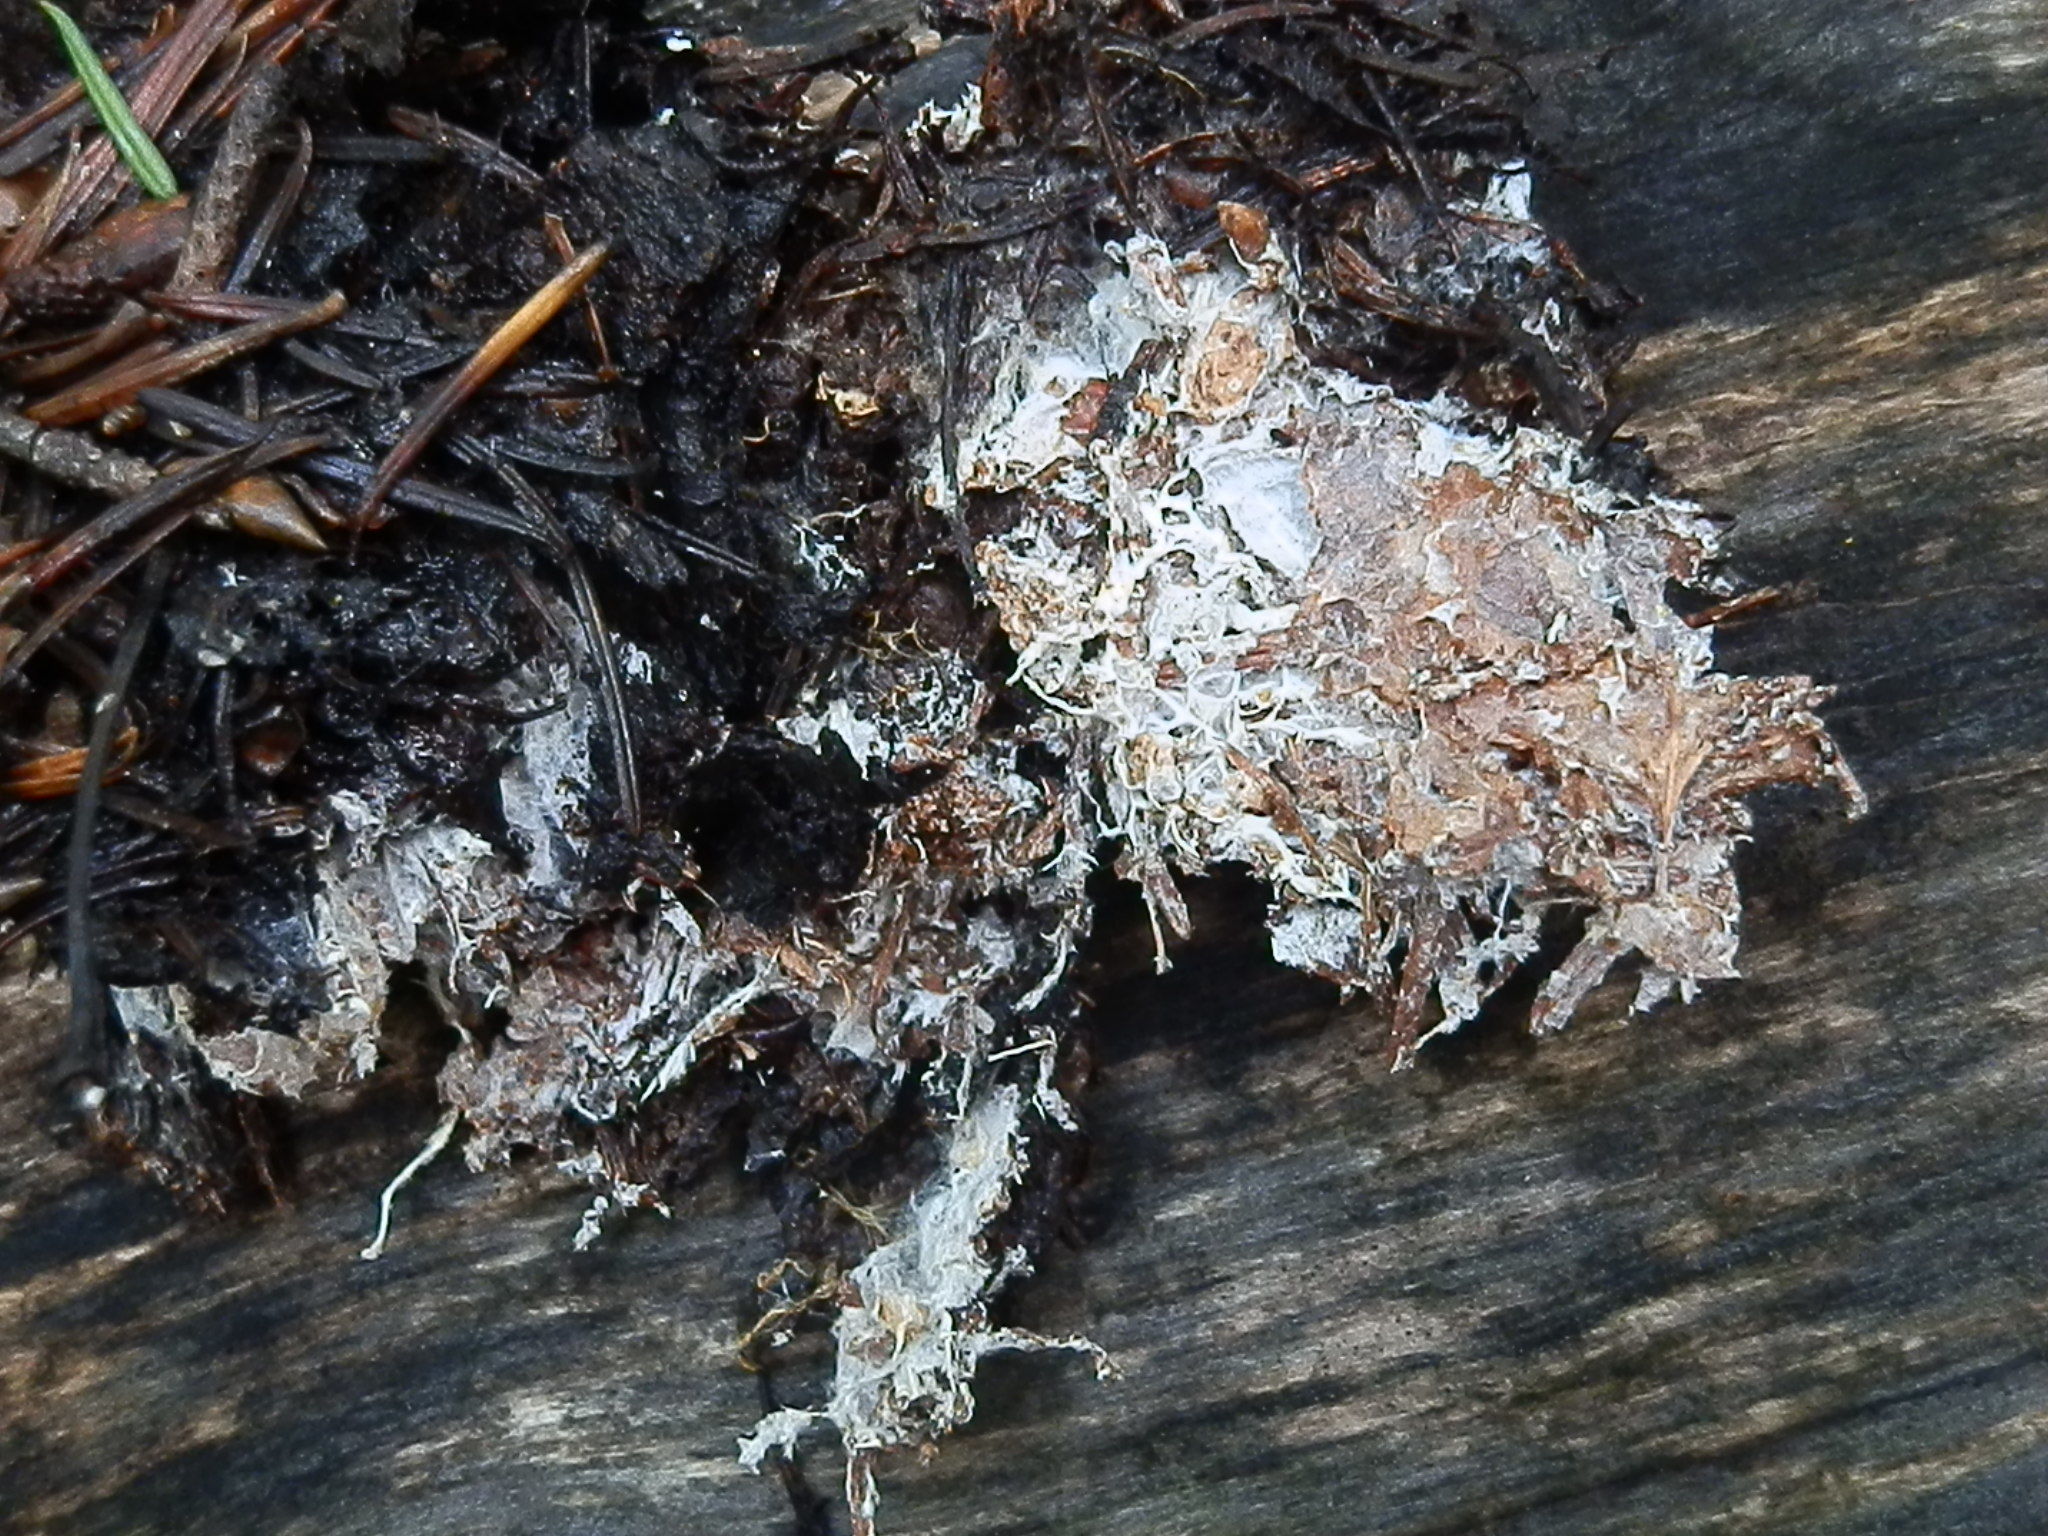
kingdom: Fungi
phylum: Basidiomycota
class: Agaricomycetes
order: Agaricales
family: Agaricaceae
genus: Lepiota
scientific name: Lepiota clypeolaria
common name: Shield dapperling
